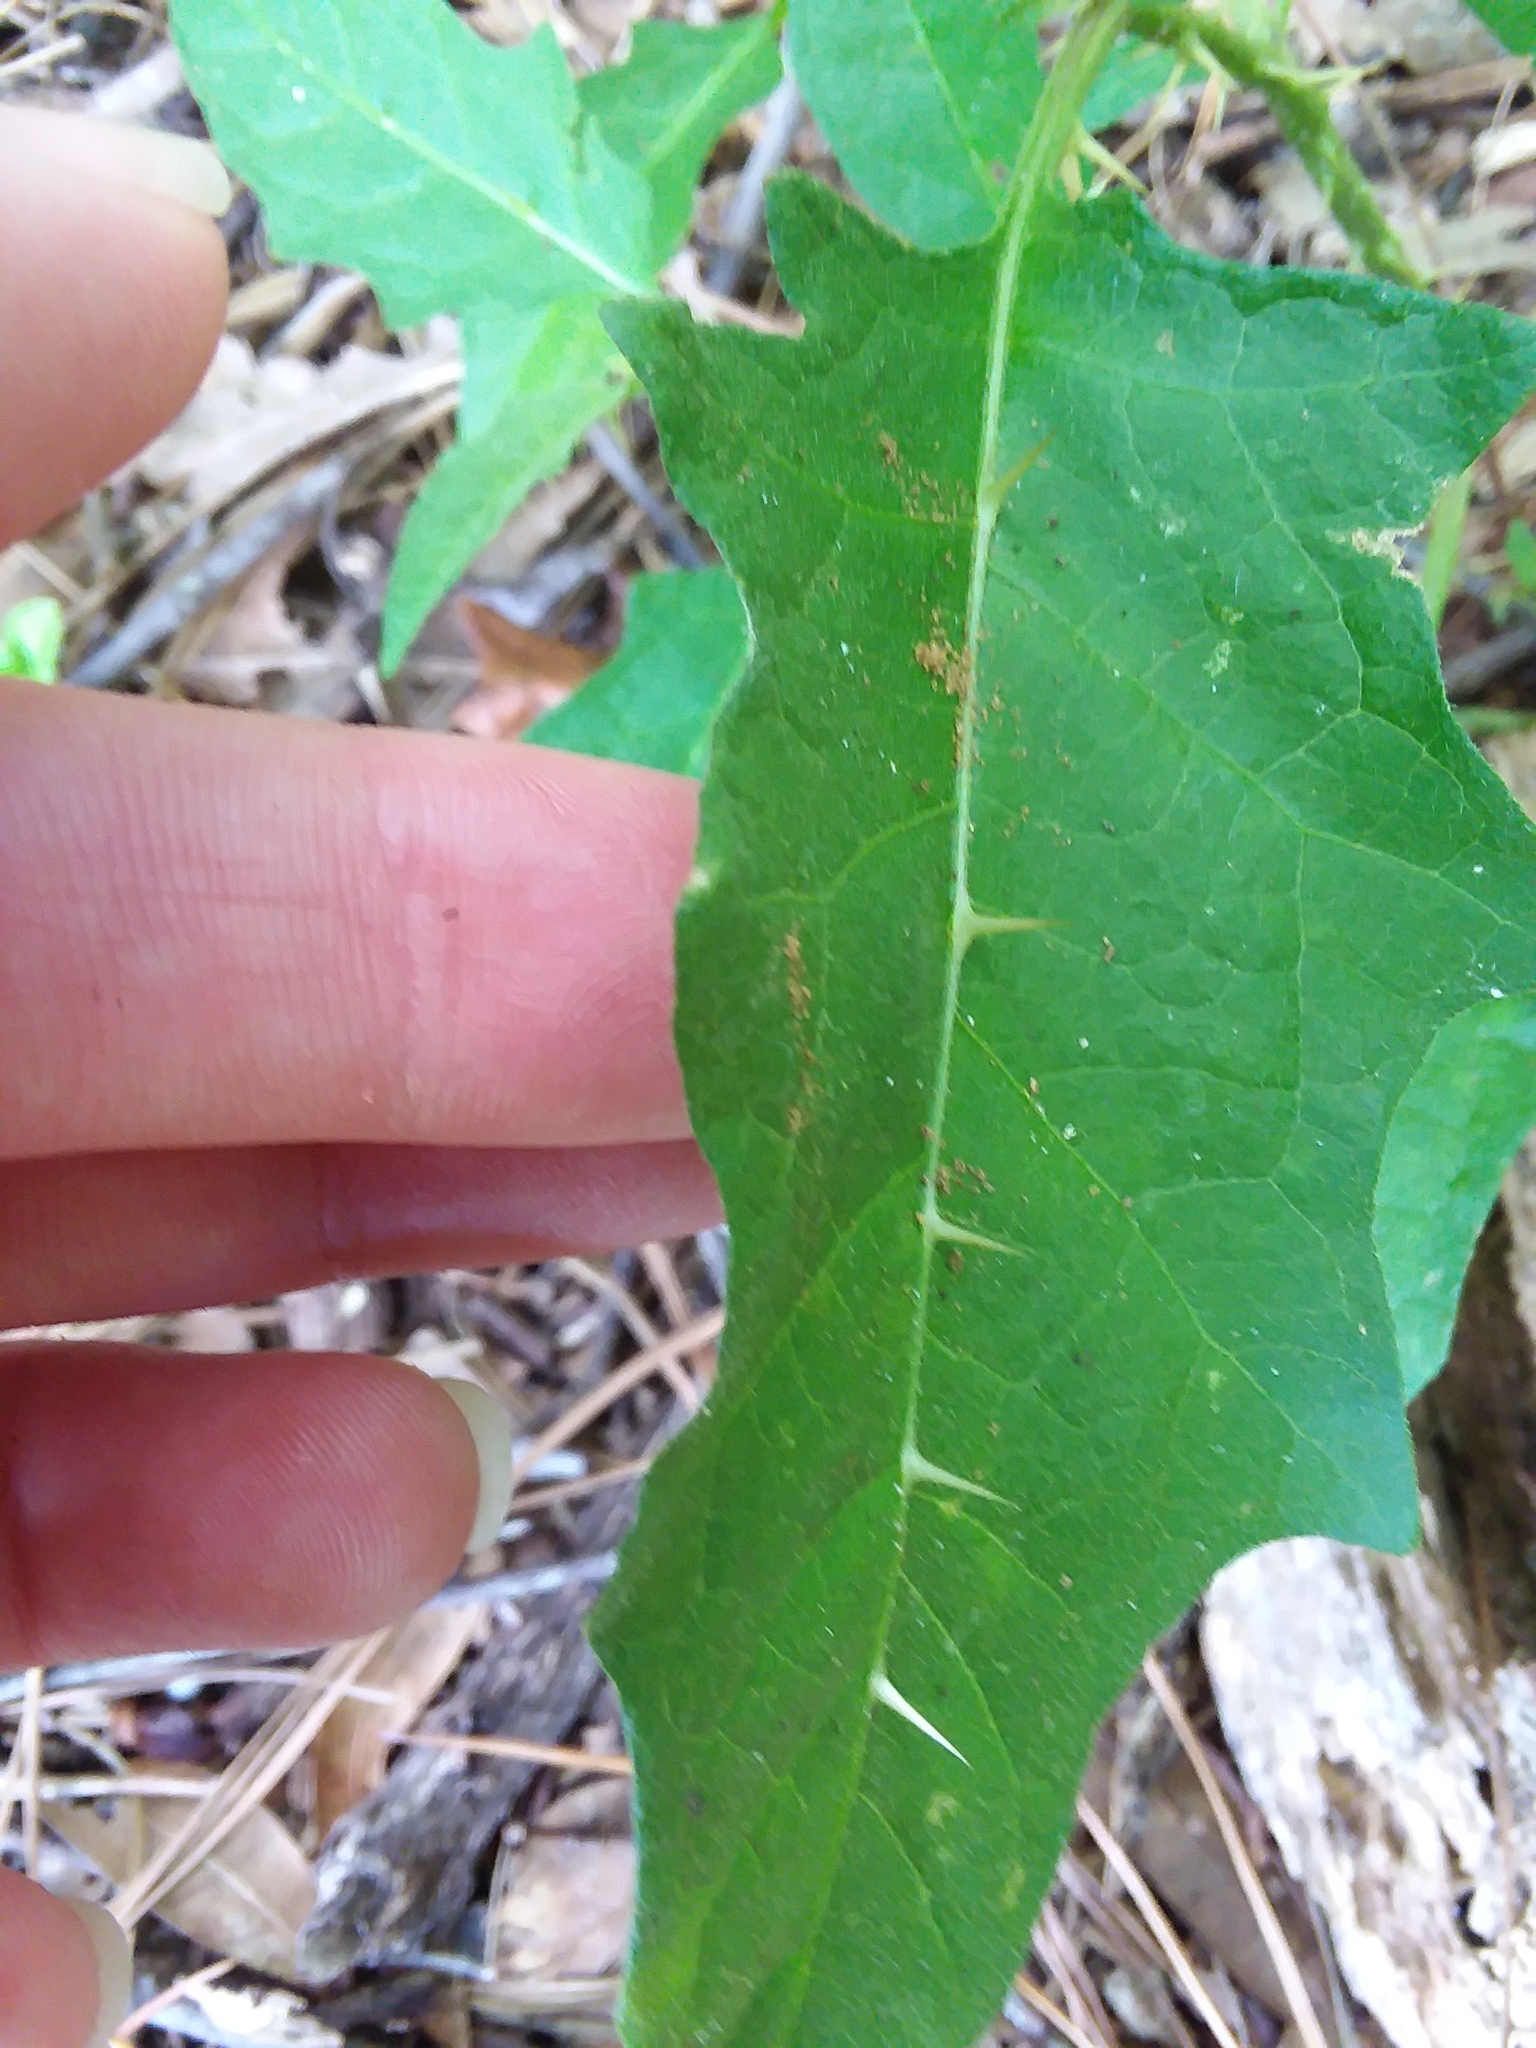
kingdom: Plantae
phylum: Tracheophyta
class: Magnoliopsida
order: Solanales
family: Solanaceae
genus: Solanum
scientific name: Solanum carolinense
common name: Horse-nettle
